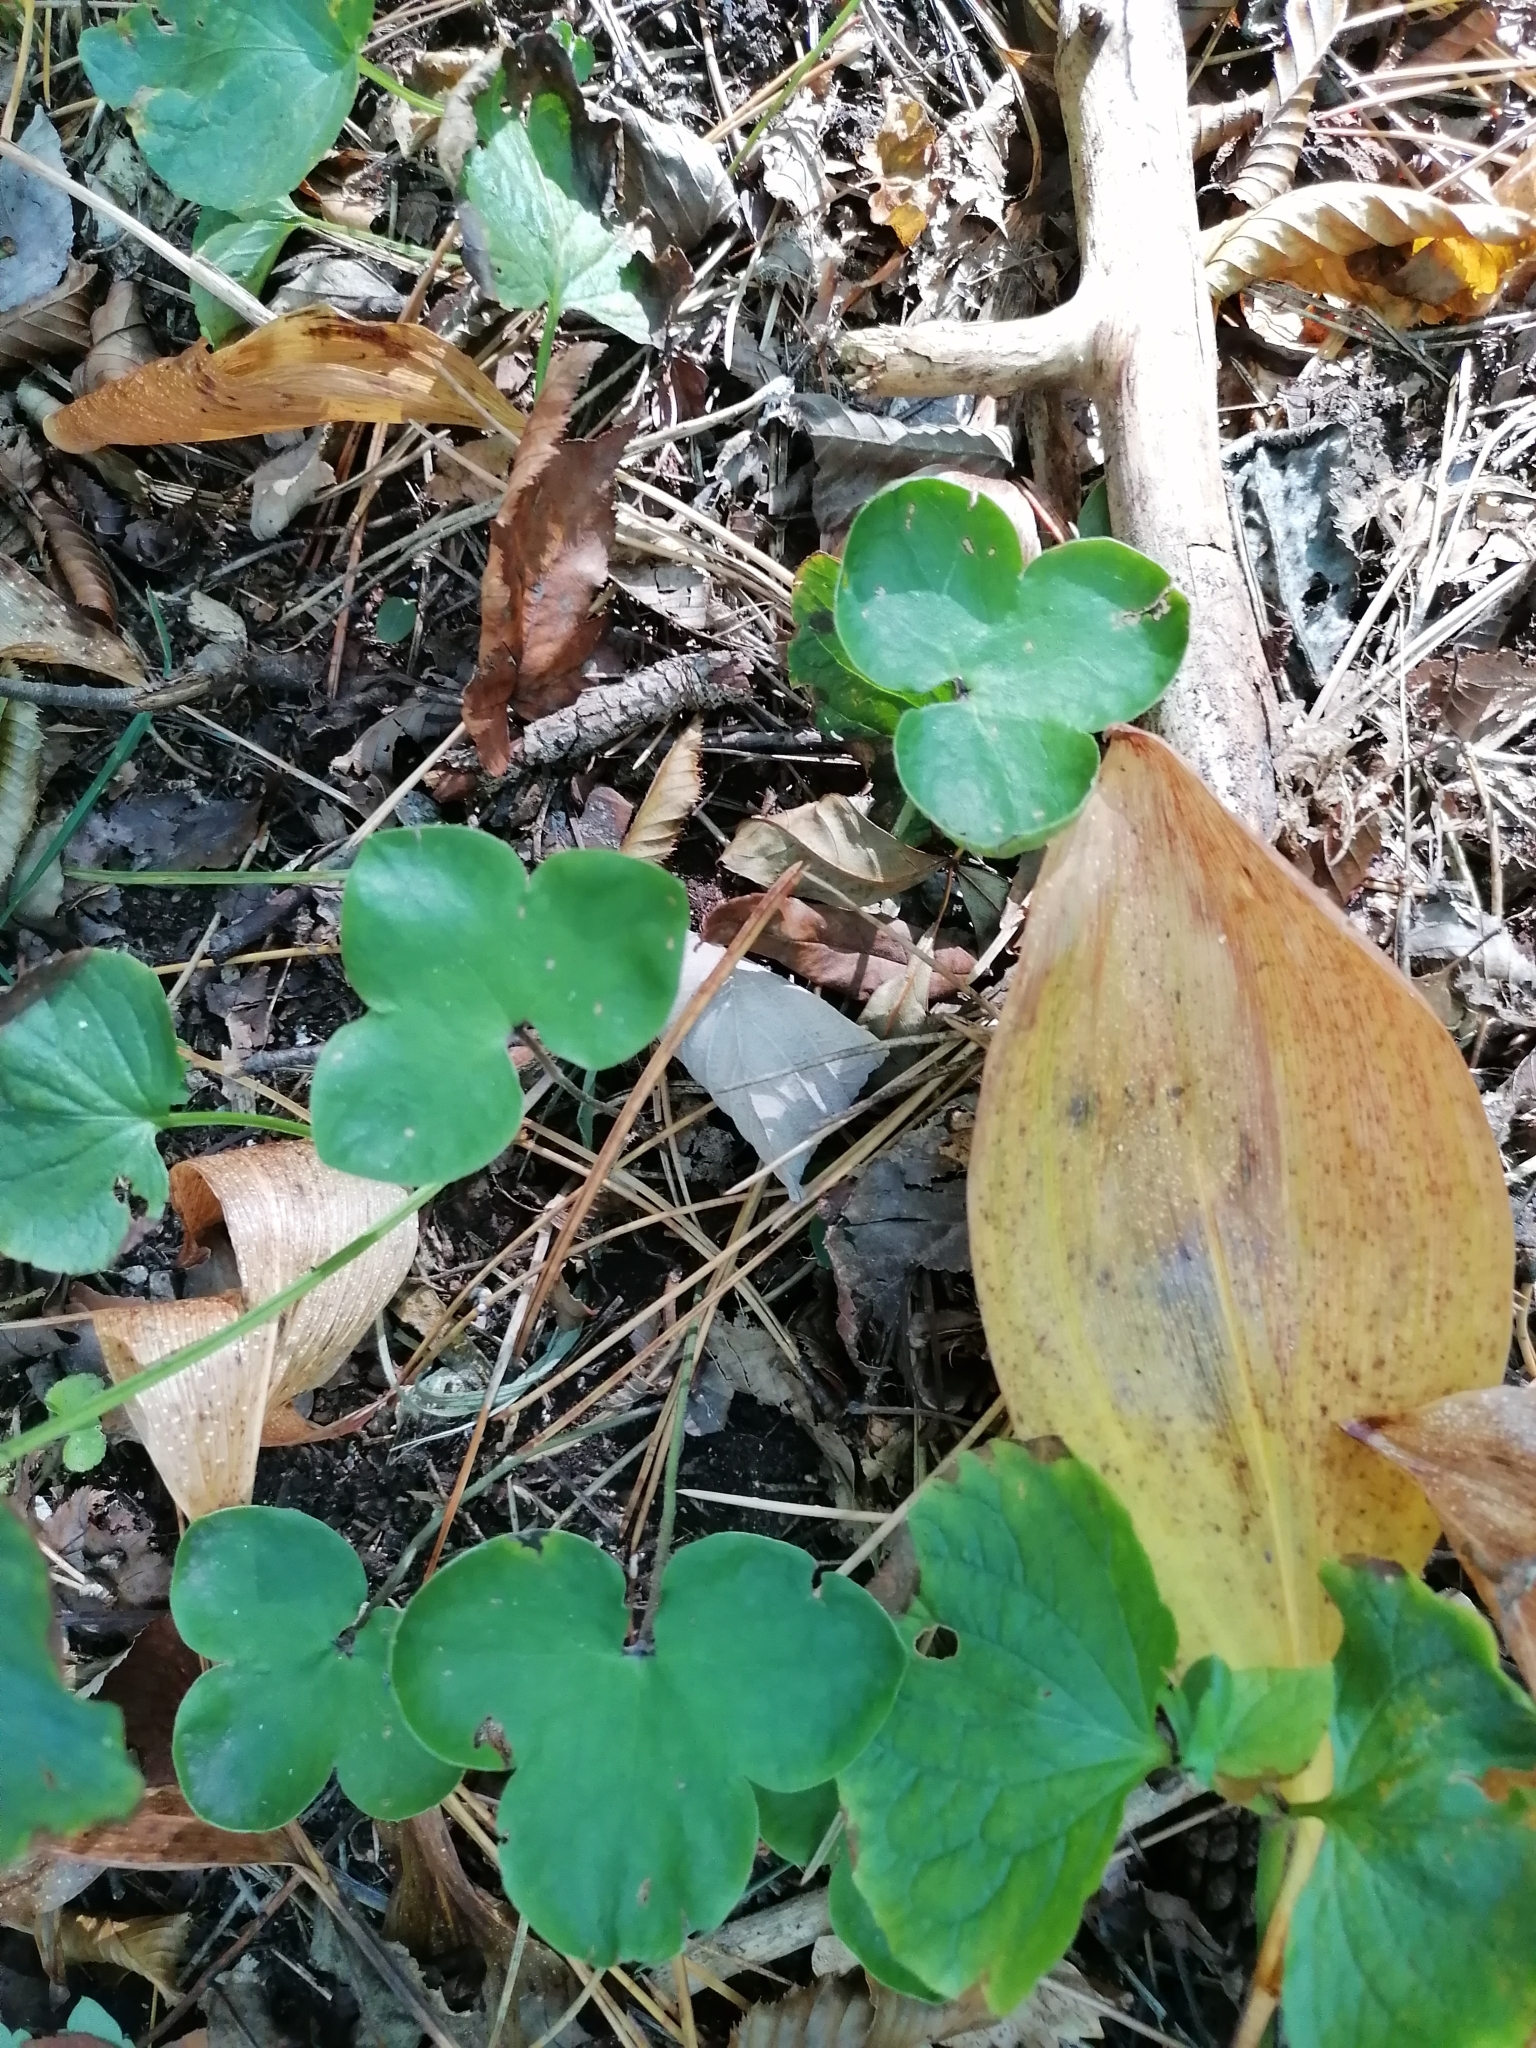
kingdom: Plantae
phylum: Tracheophyta
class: Magnoliopsida
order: Ranunculales
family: Ranunculaceae
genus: Hepatica
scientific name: Hepatica nobilis
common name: Liverleaf
